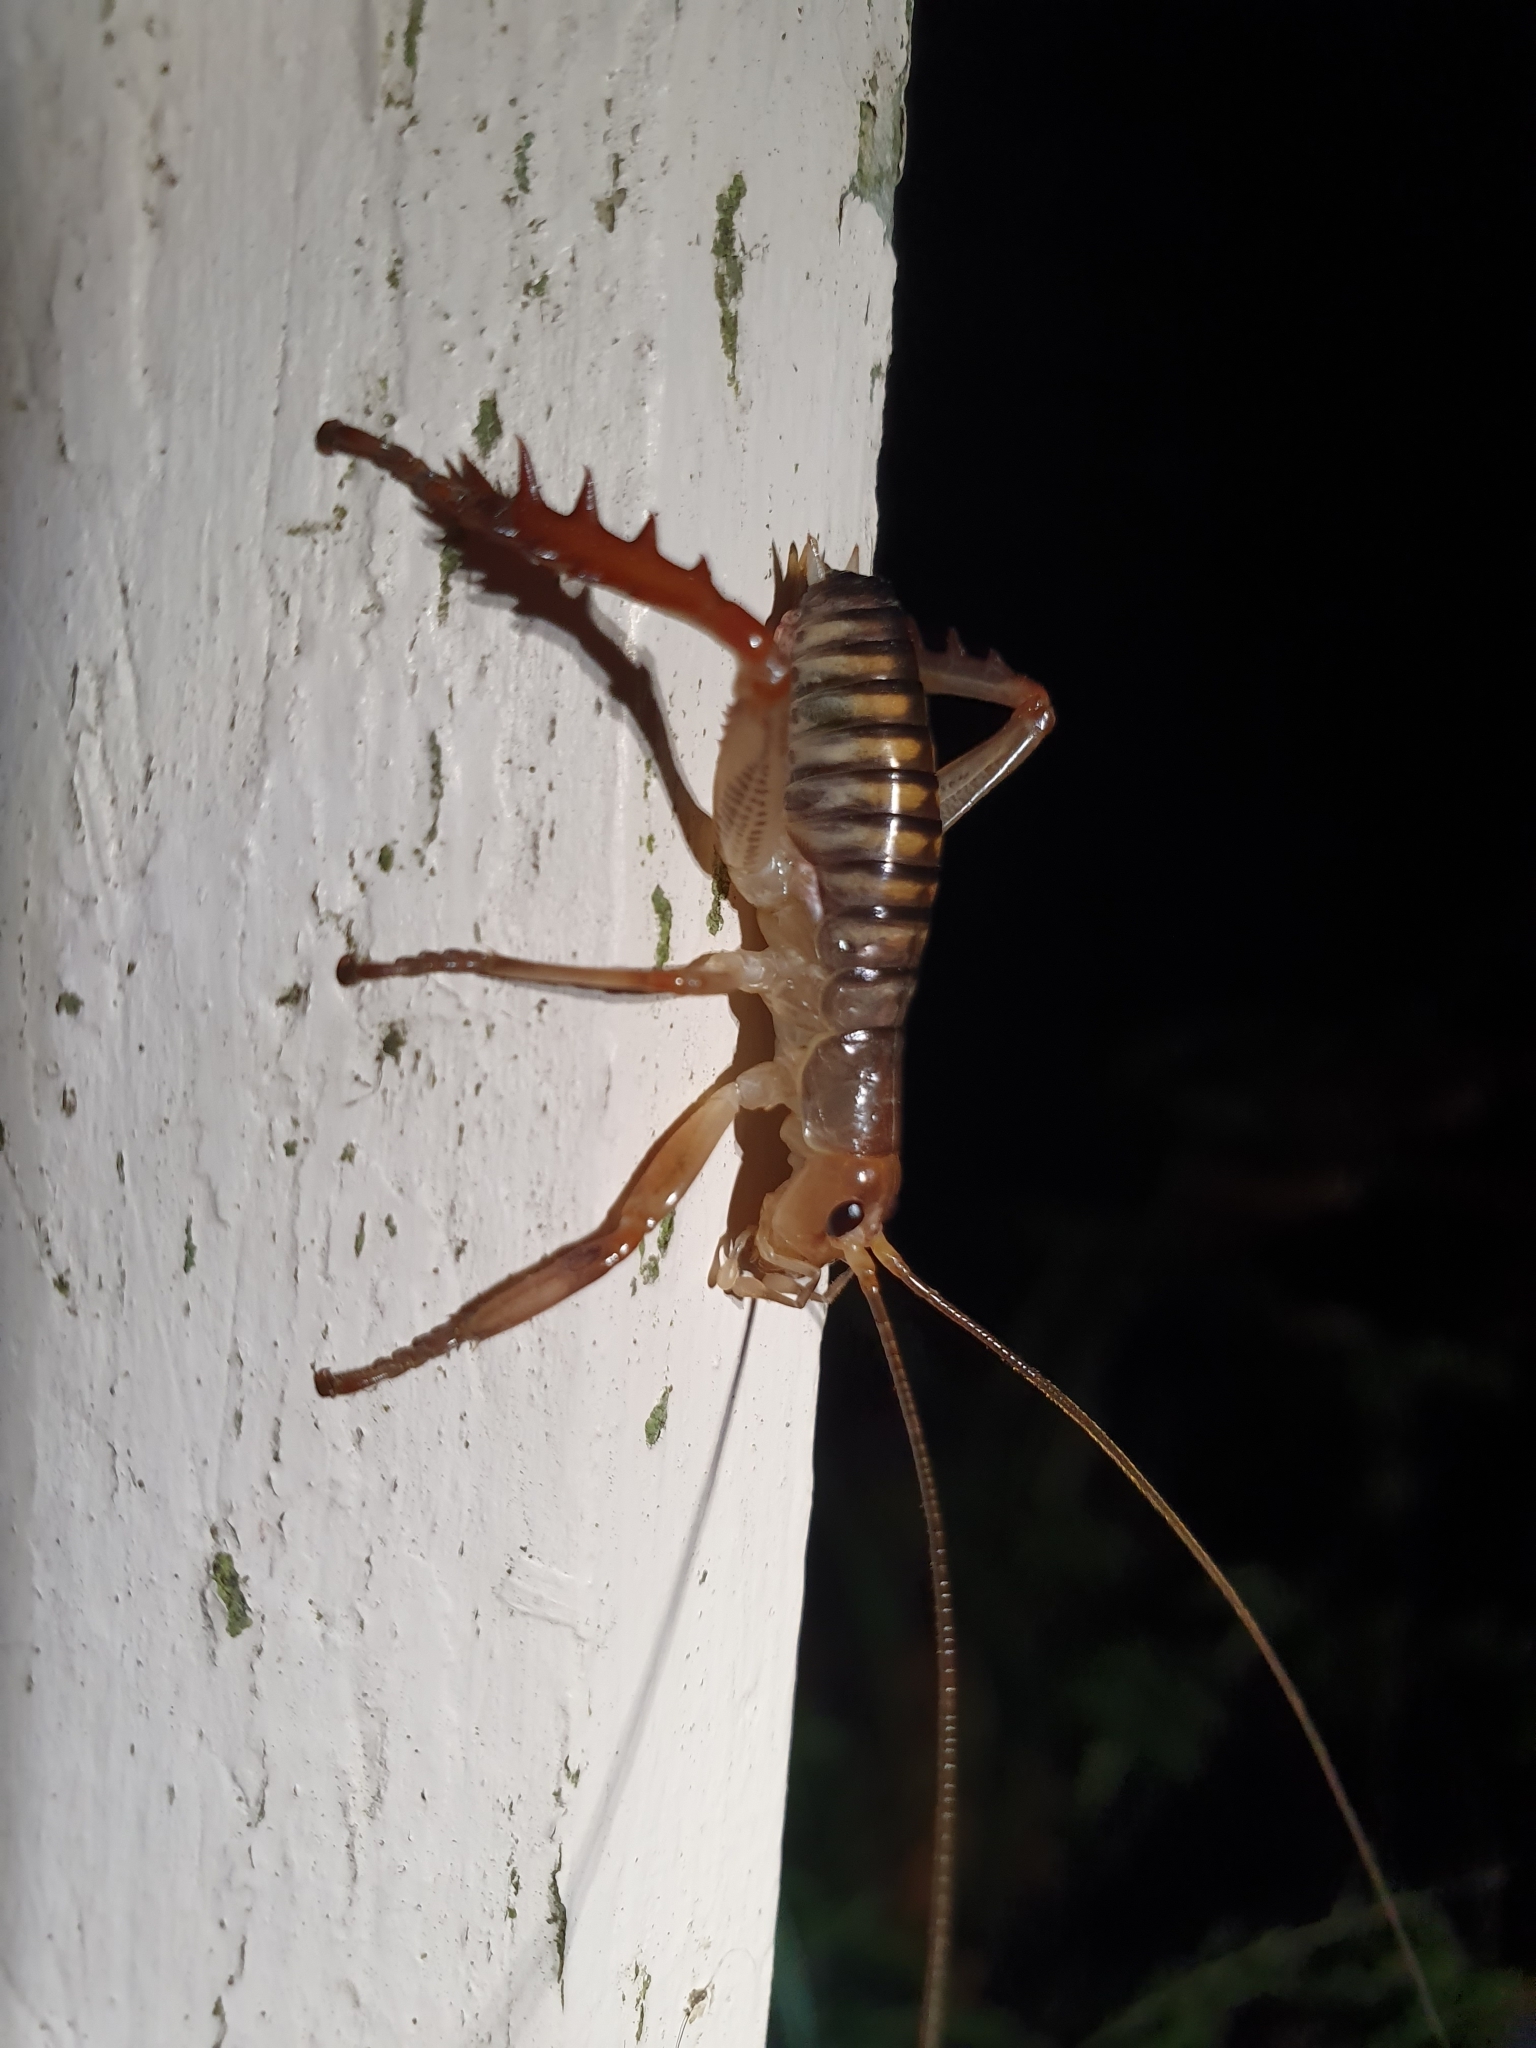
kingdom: Animalia
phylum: Arthropoda
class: Insecta
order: Orthoptera
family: Anostostomatidae
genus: Hemideina
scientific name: Hemideina crassidens
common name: Wellington tree weta
